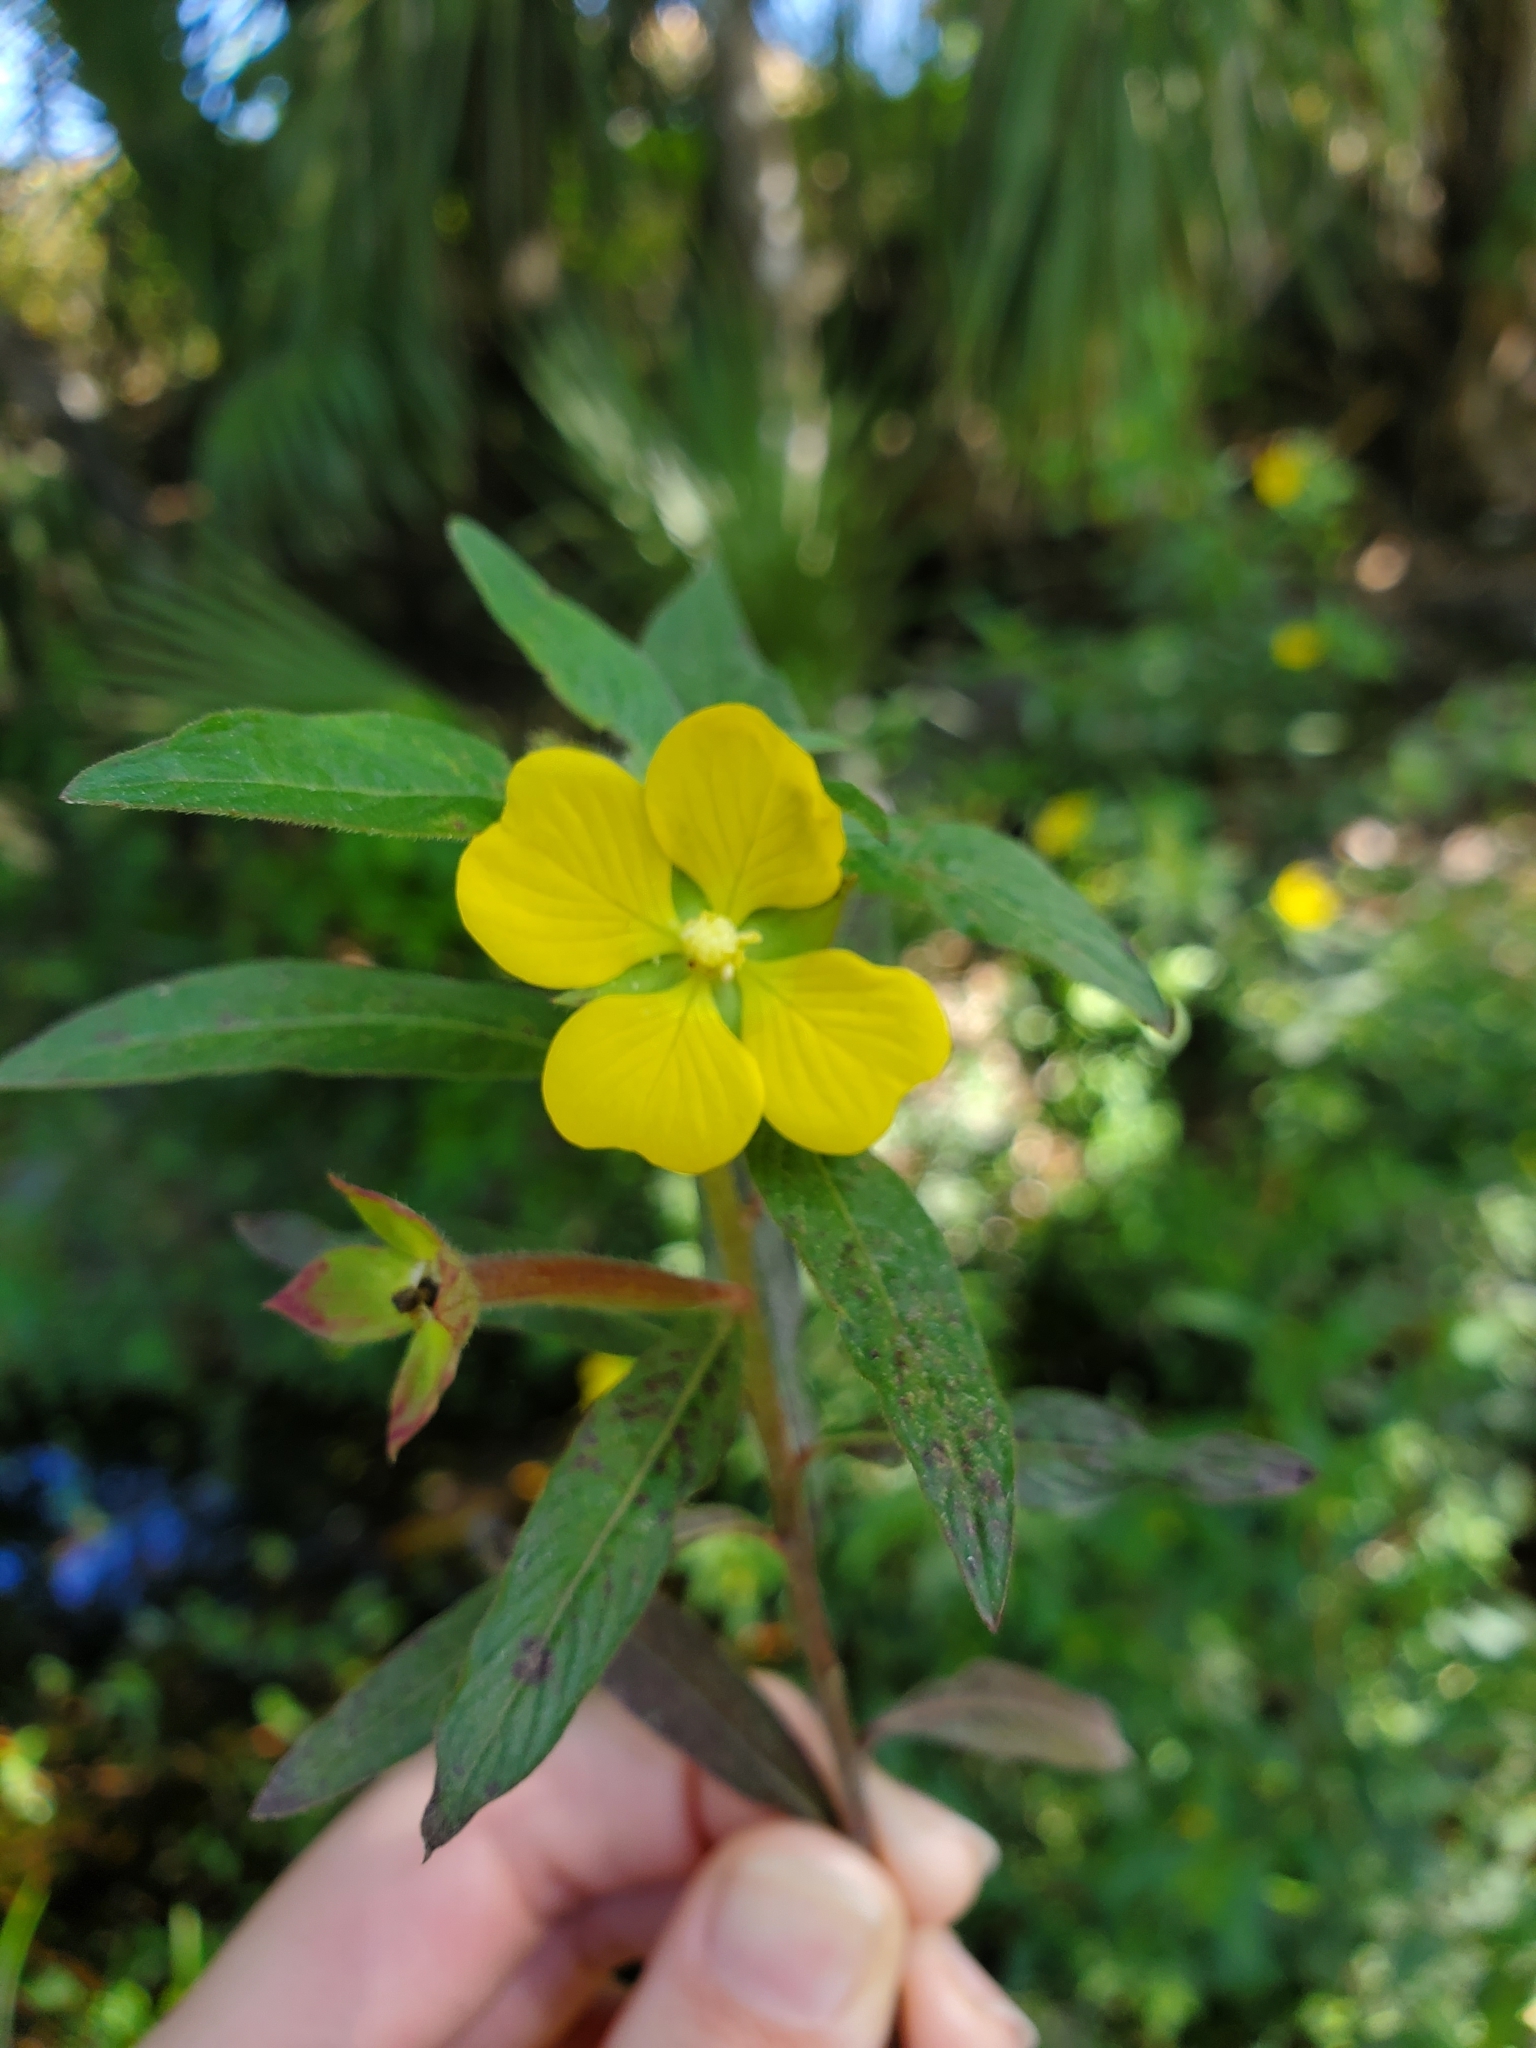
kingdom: Plantae
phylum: Tracheophyta
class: Magnoliopsida
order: Myrtales
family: Onagraceae
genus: Ludwigia
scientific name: Ludwigia octovalvis
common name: Water-primrose
